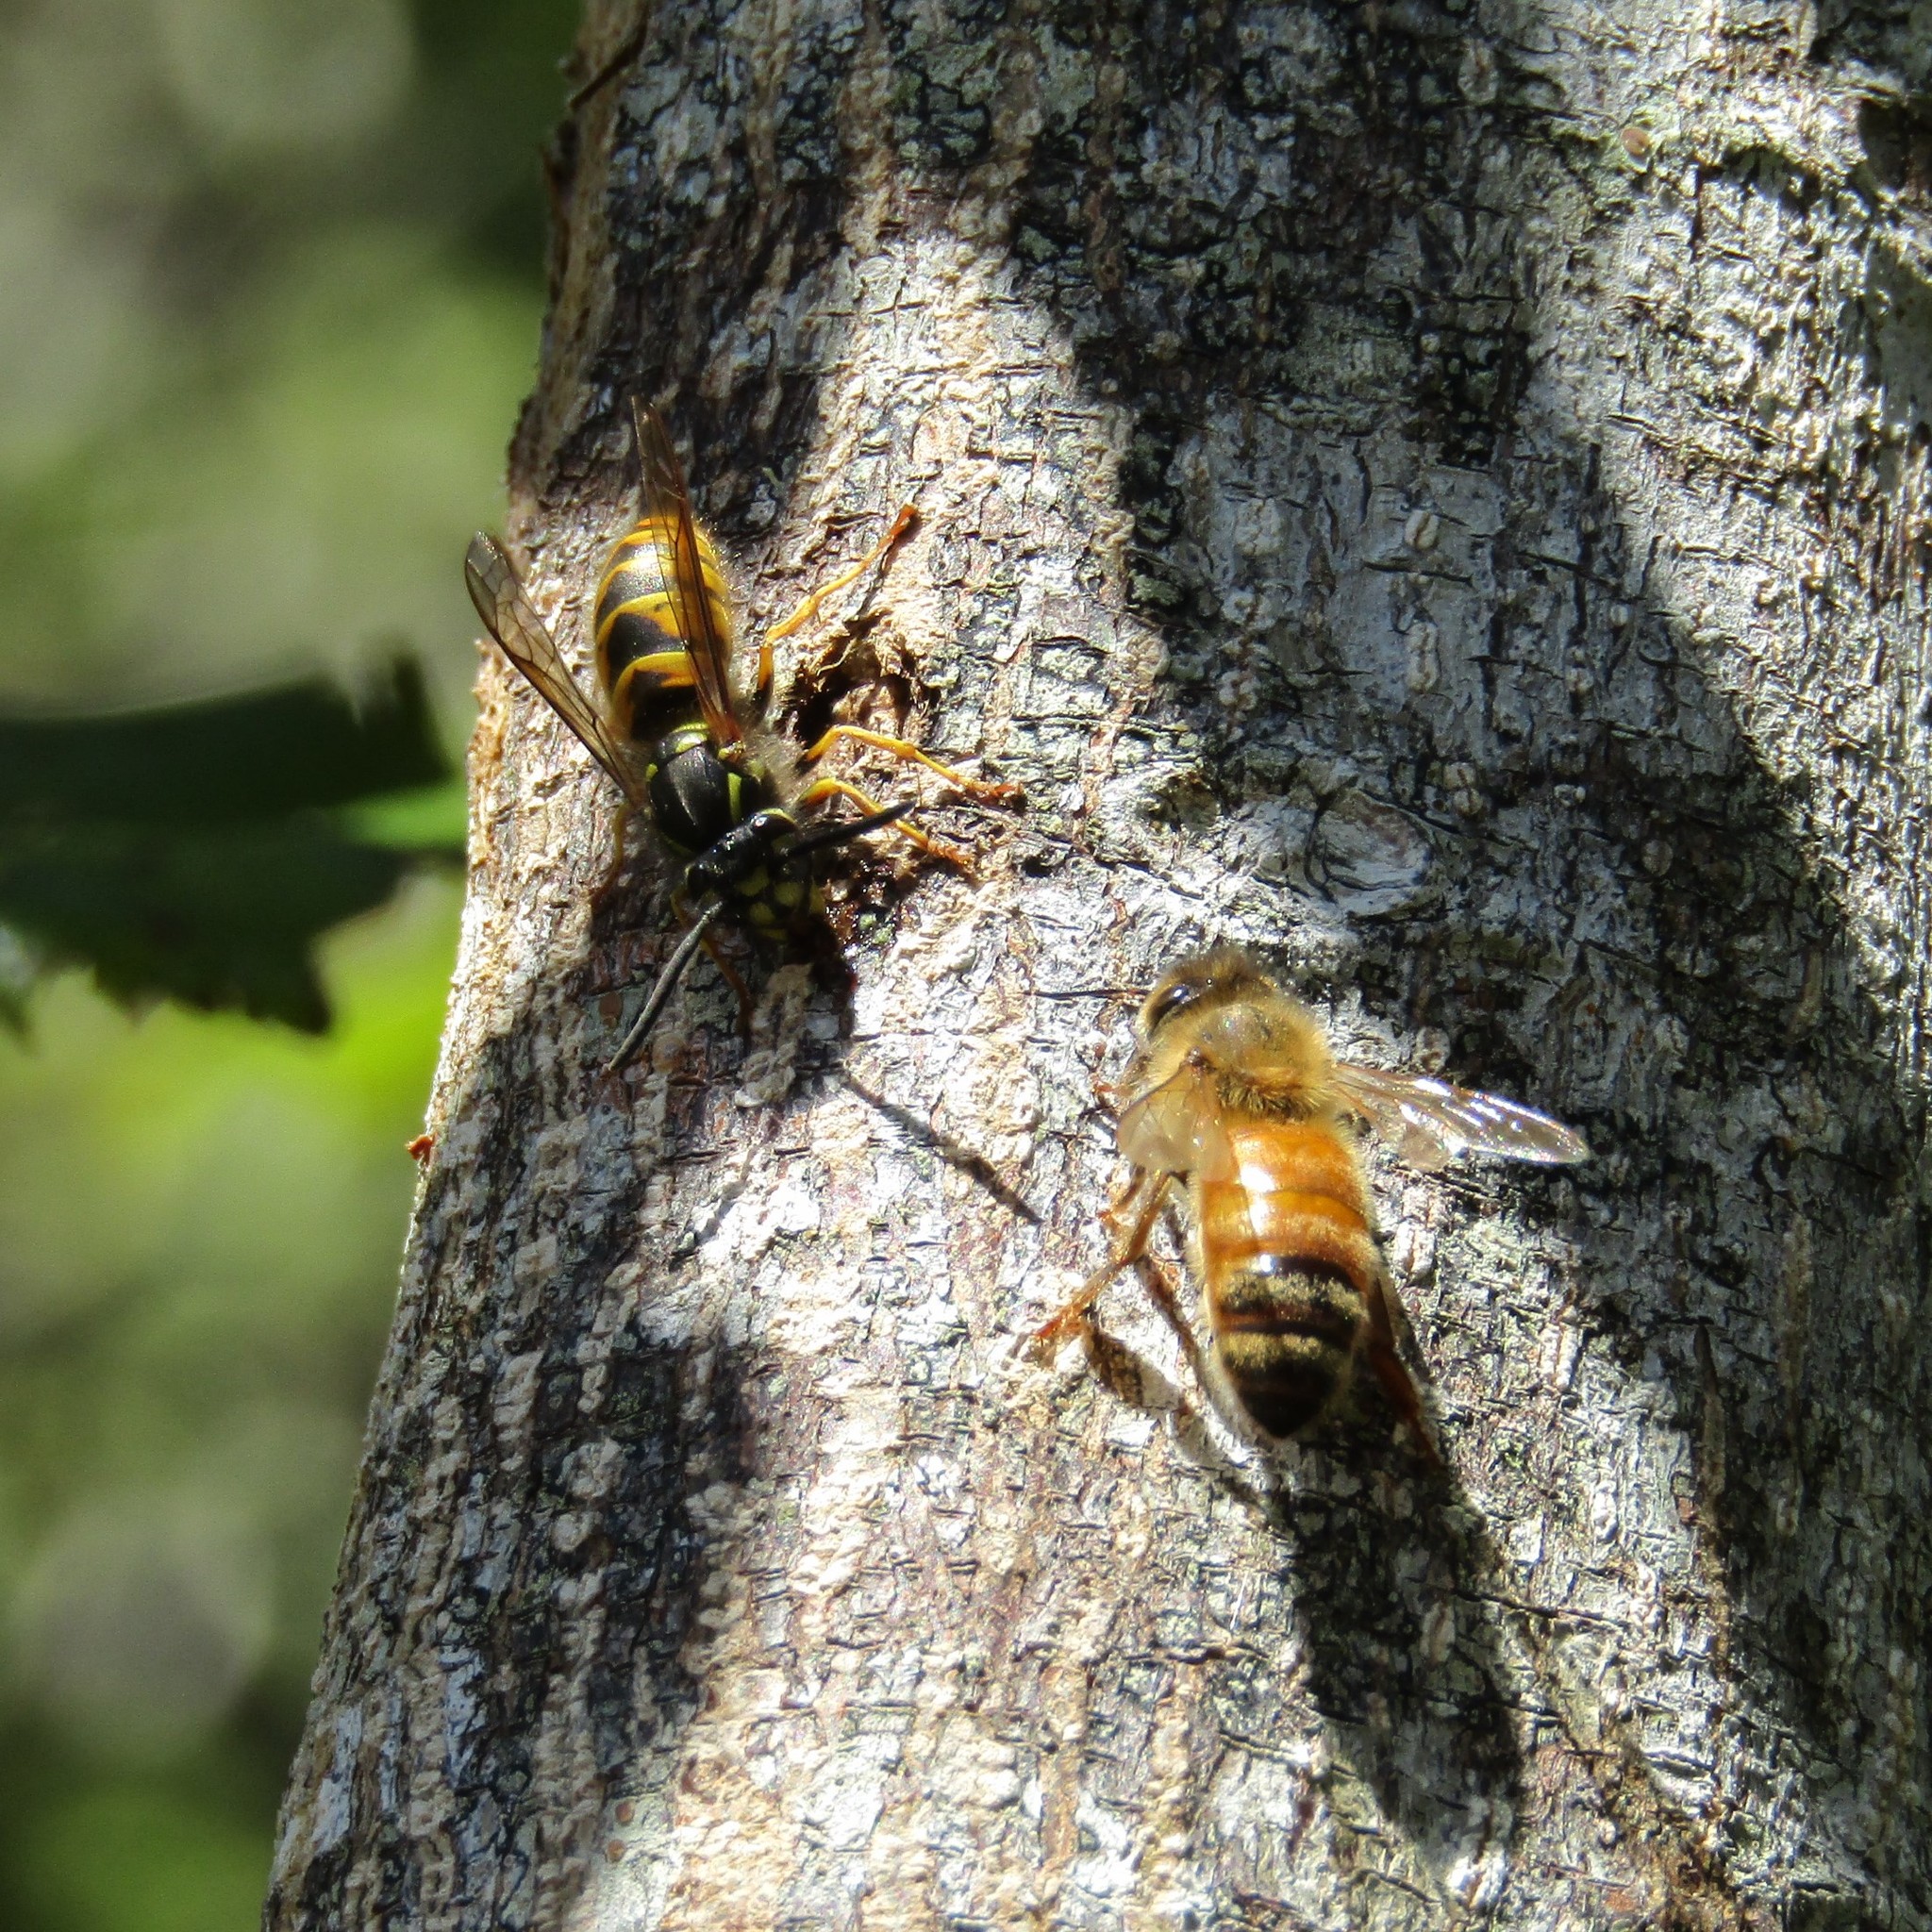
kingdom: Animalia
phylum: Arthropoda
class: Insecta
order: Hymenoptera
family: Apidae
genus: Apis
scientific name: Apis mellifera
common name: Honey bee
